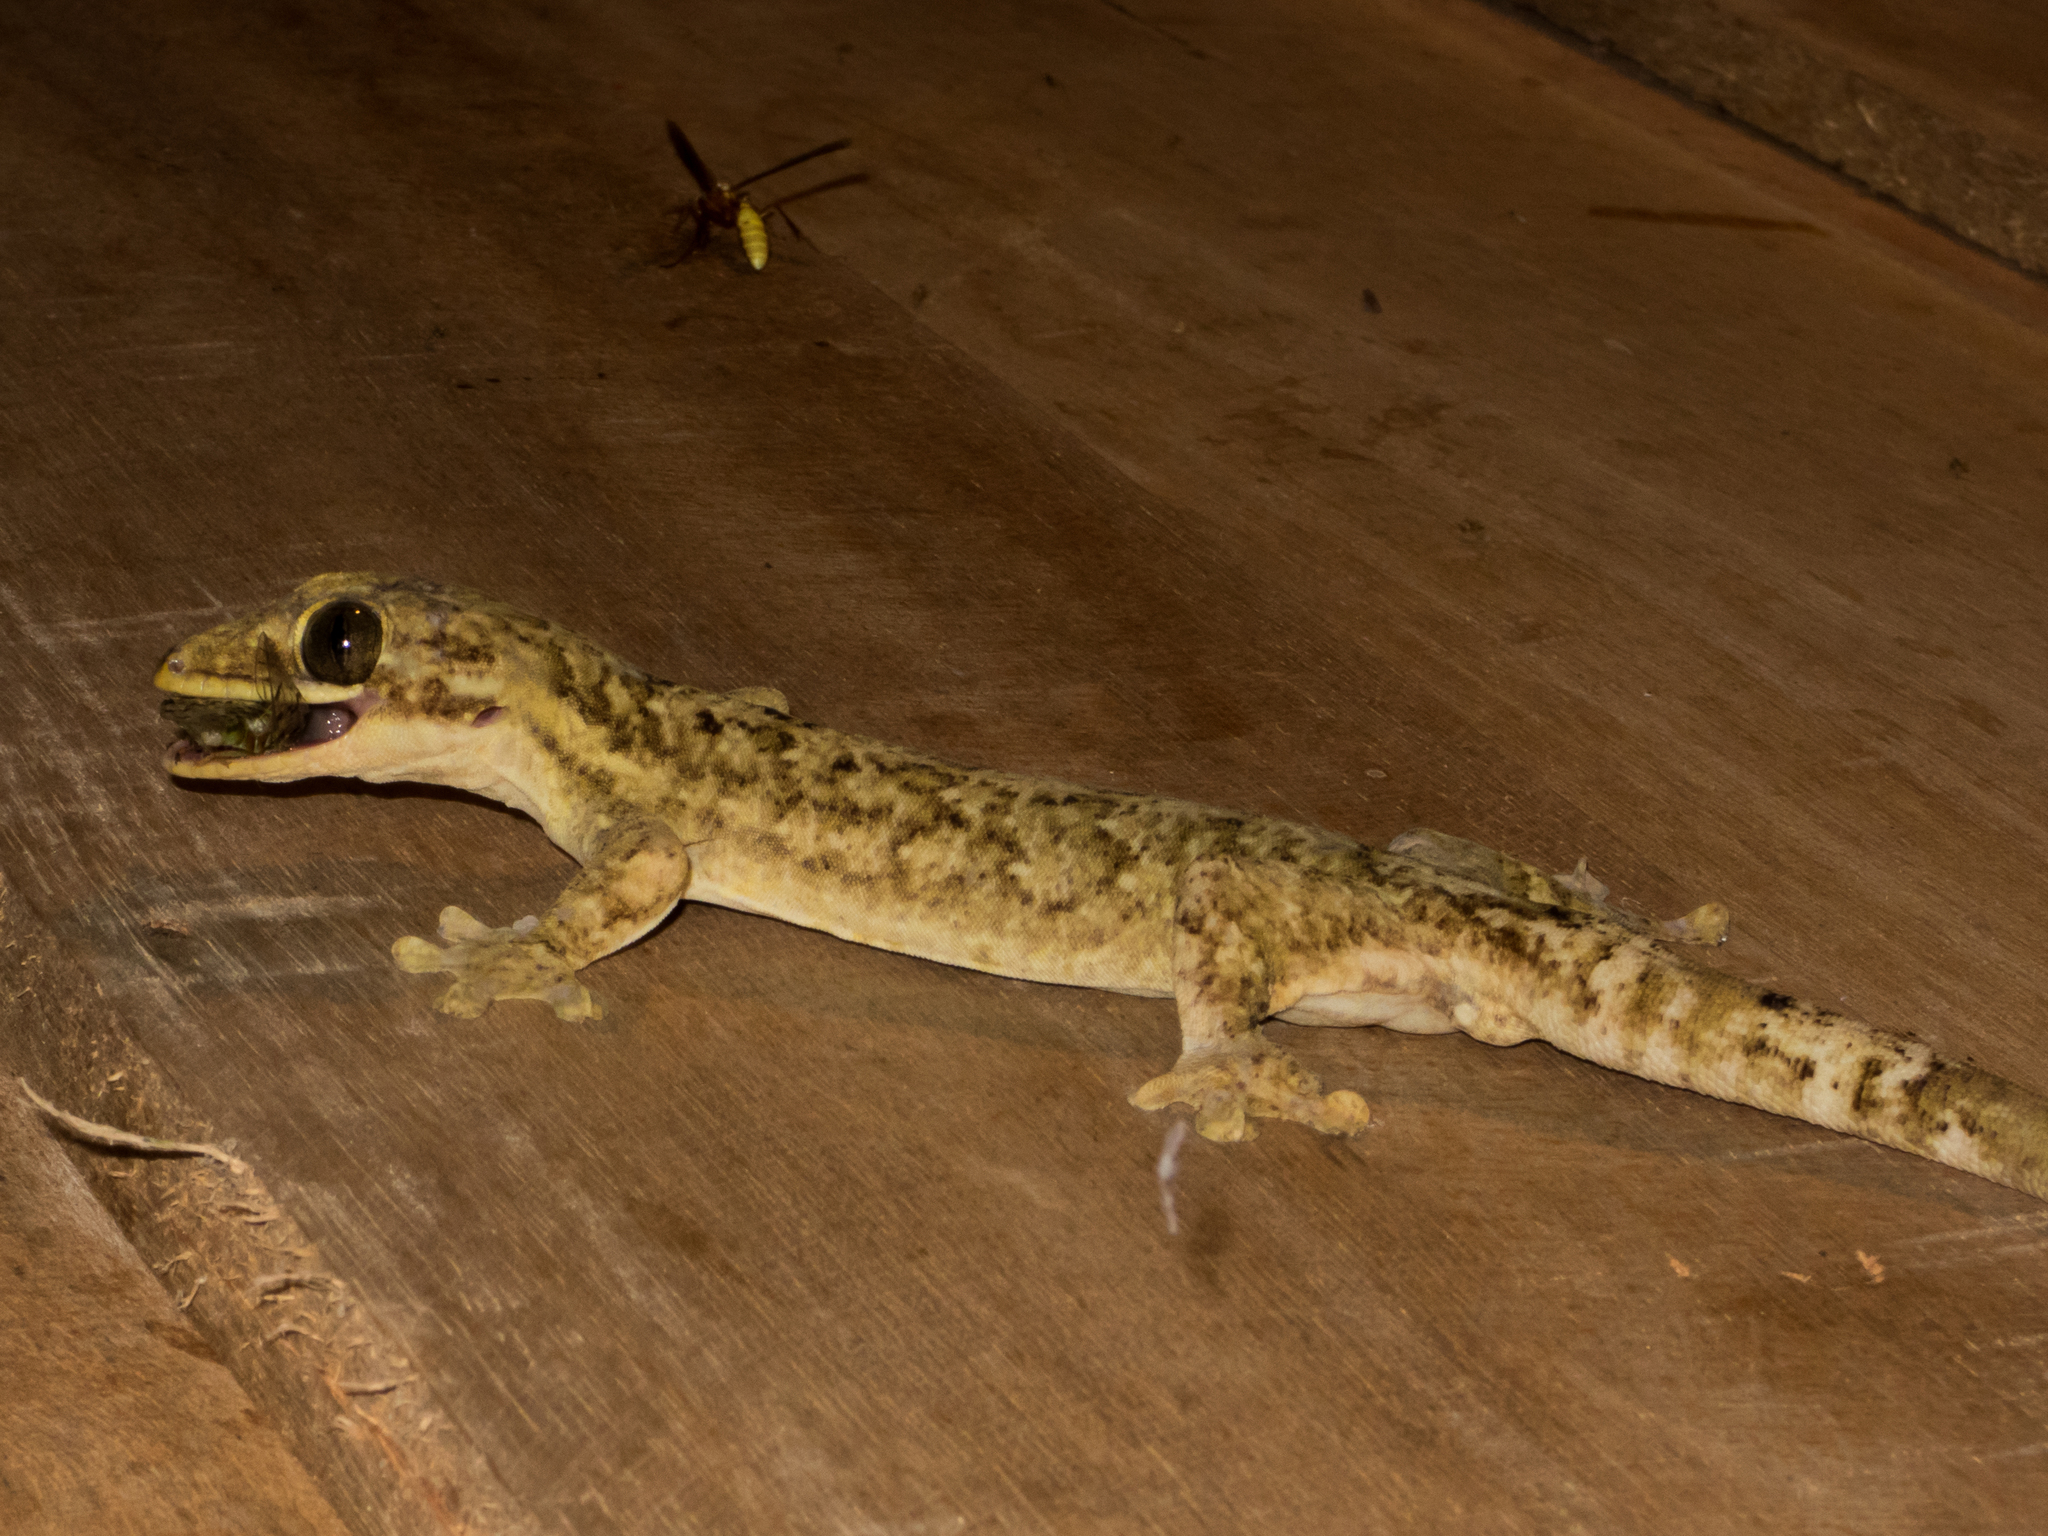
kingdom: Animalia
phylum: Arthropoda
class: Insecta
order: Hymenoptera
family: Vespidae
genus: Apoica
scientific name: Apoica pallens
